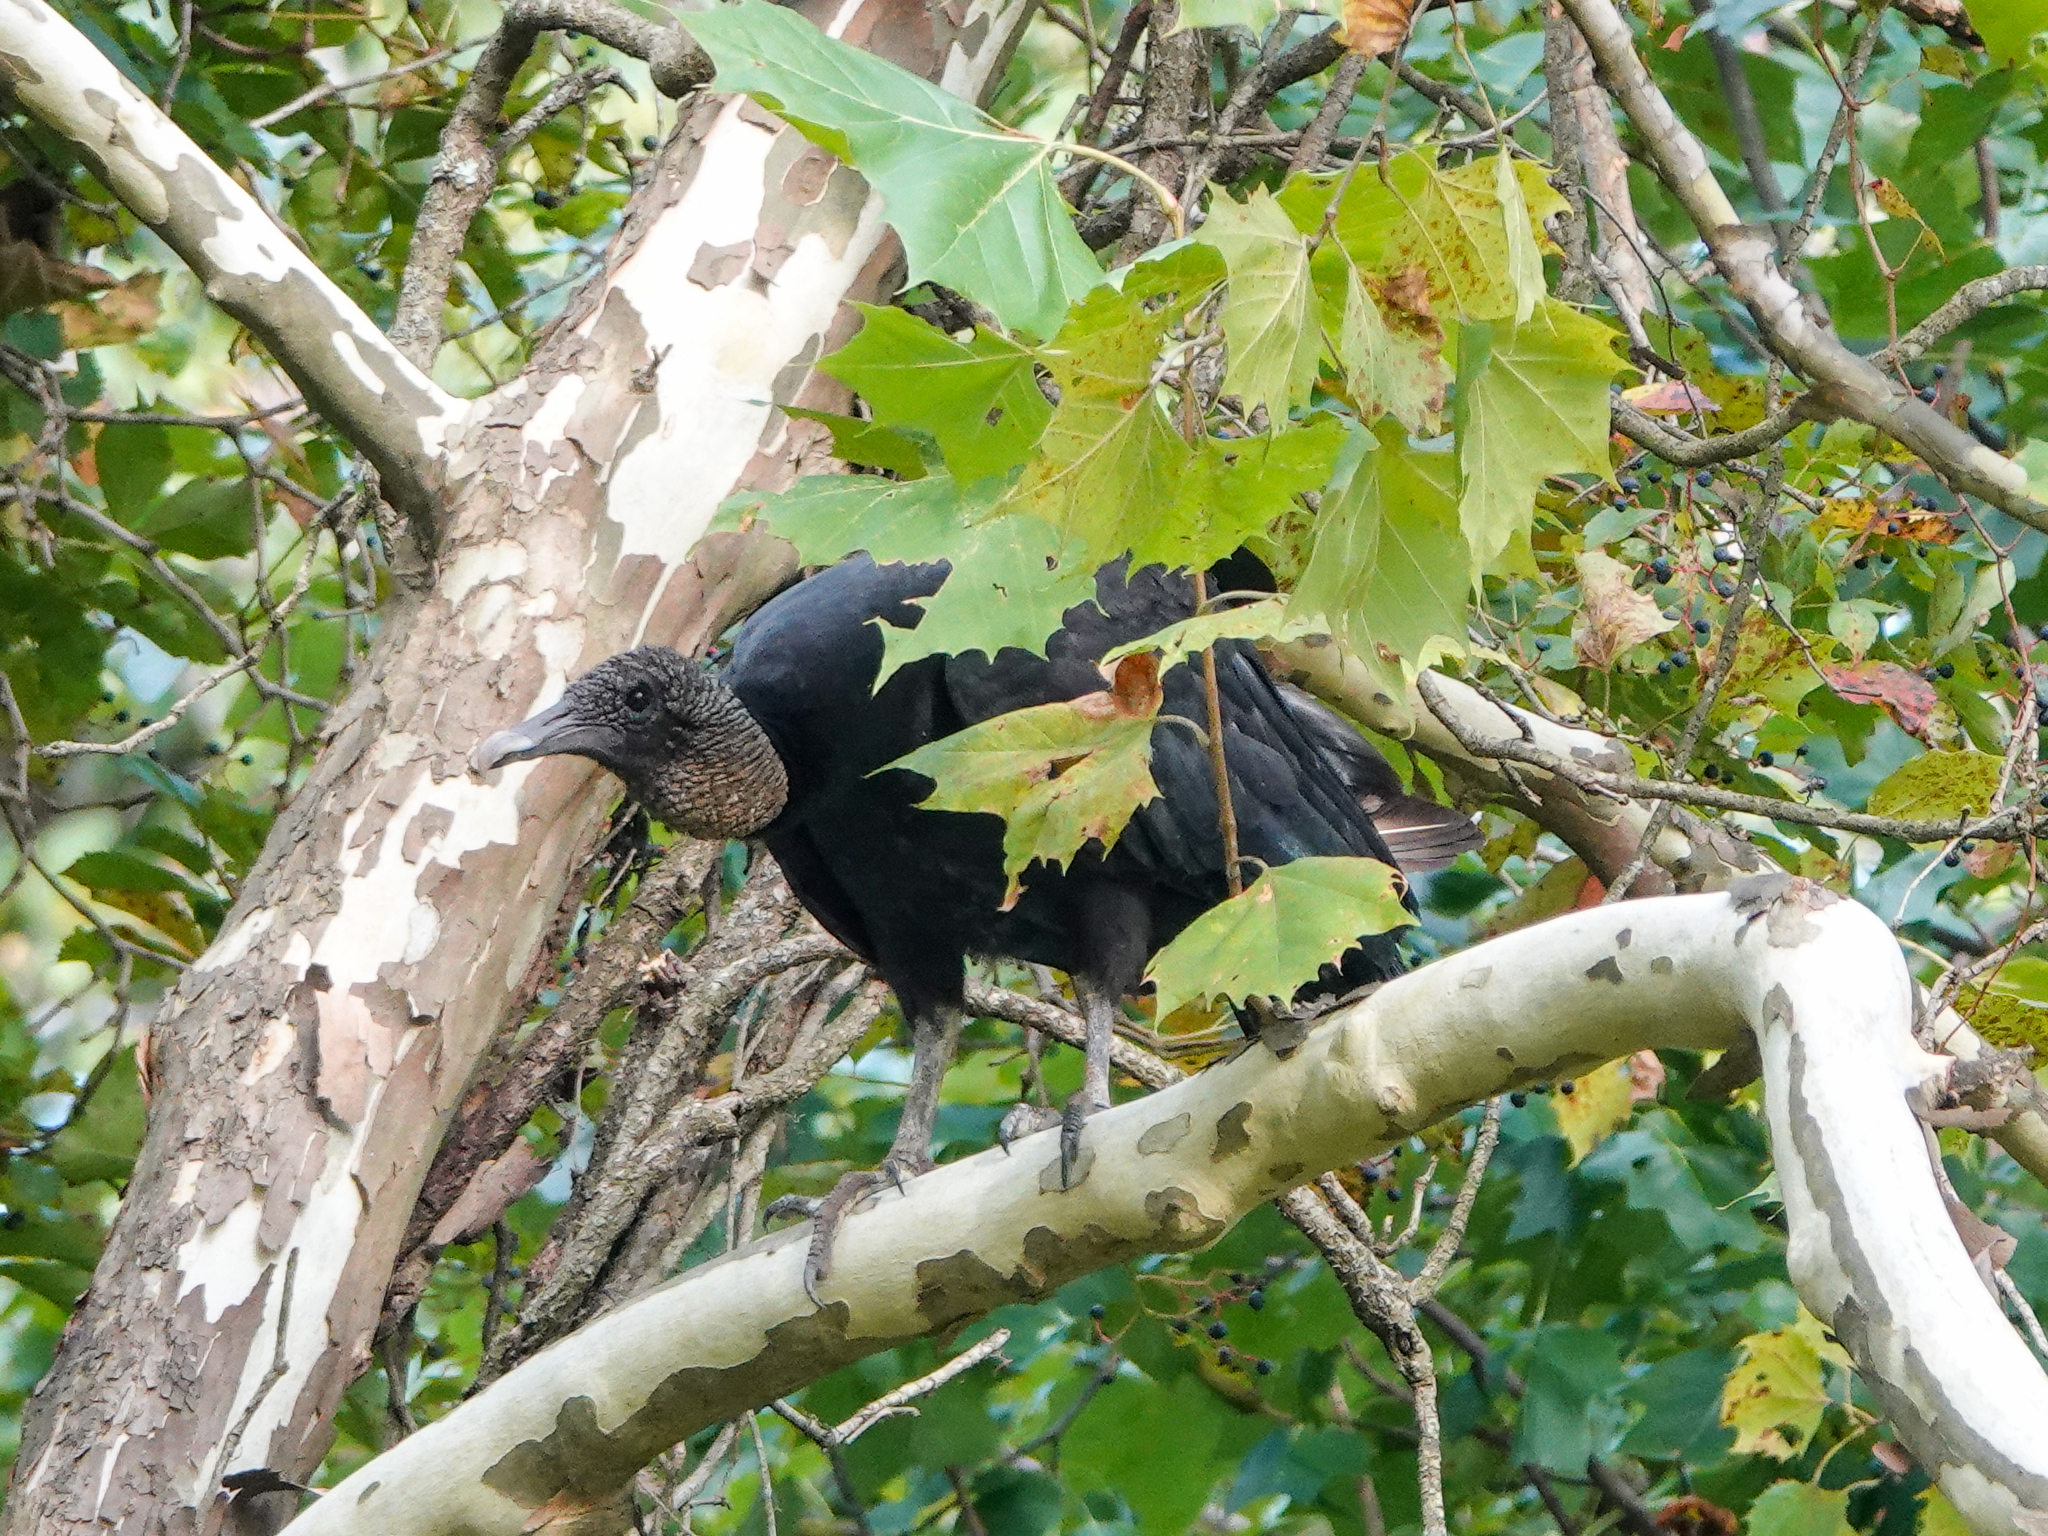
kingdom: Animalia
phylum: Chordata
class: Aves
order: Accipitriformes
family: Cathartidae
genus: Coragyps
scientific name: Coragyps atratus
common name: Black vulture
